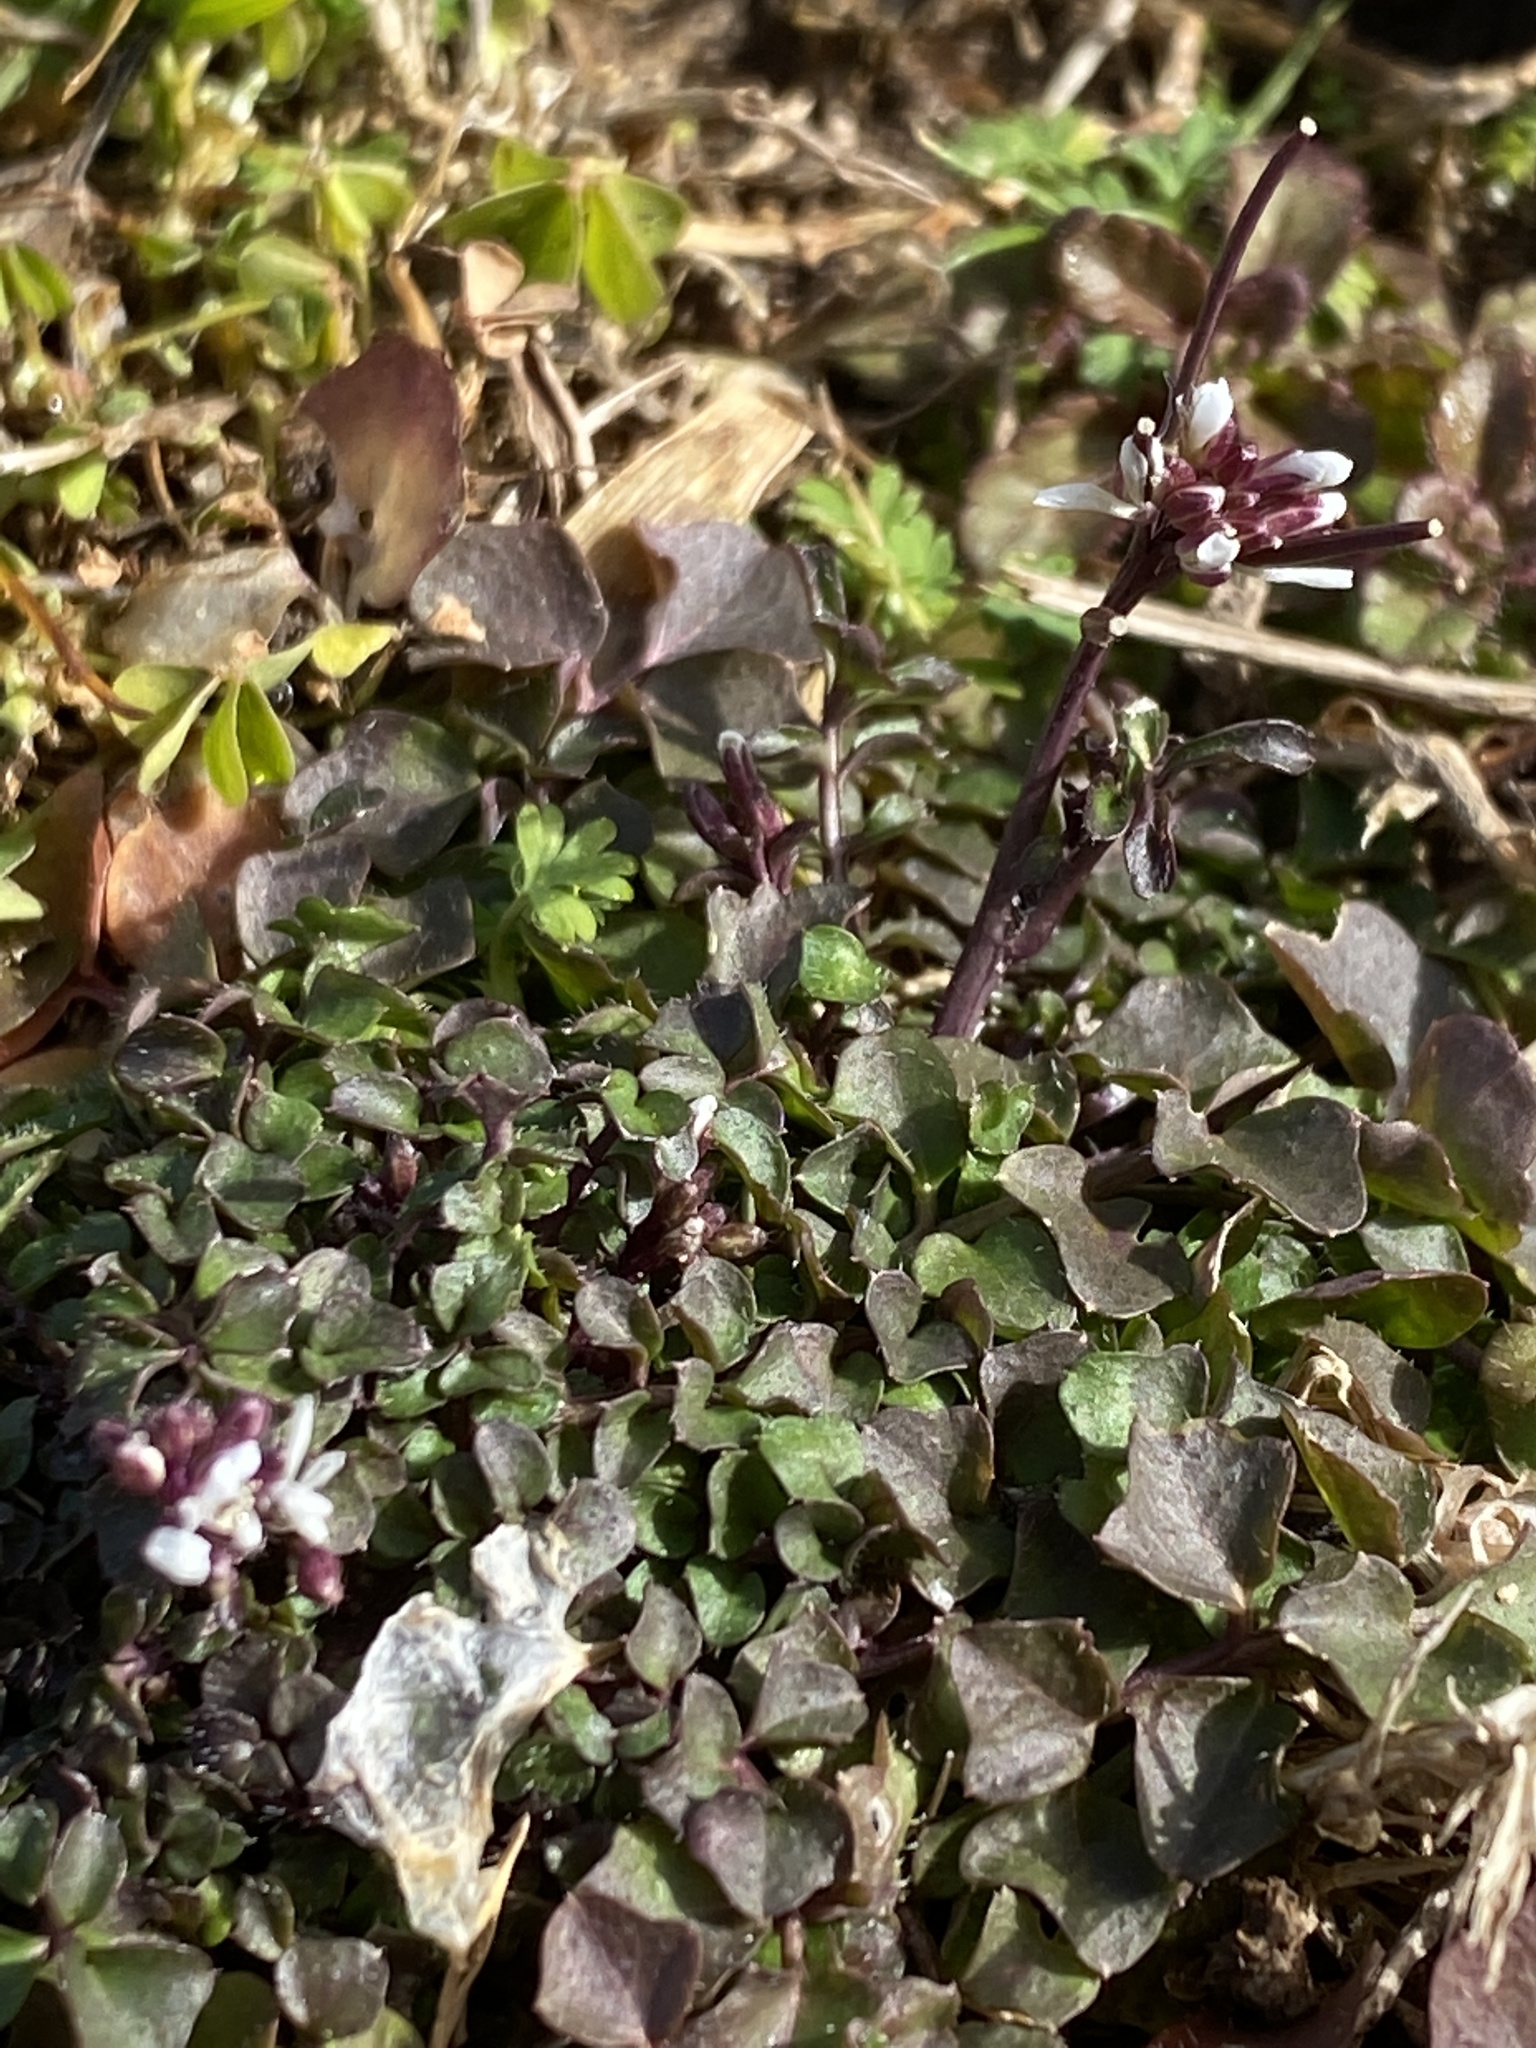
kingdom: Plantae
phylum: Tracheophyta
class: Magnoliopsida
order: Brassicales
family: Brassicaceae
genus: Cardamine
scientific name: Cardamine hirsuta
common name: Hairy bittercress
